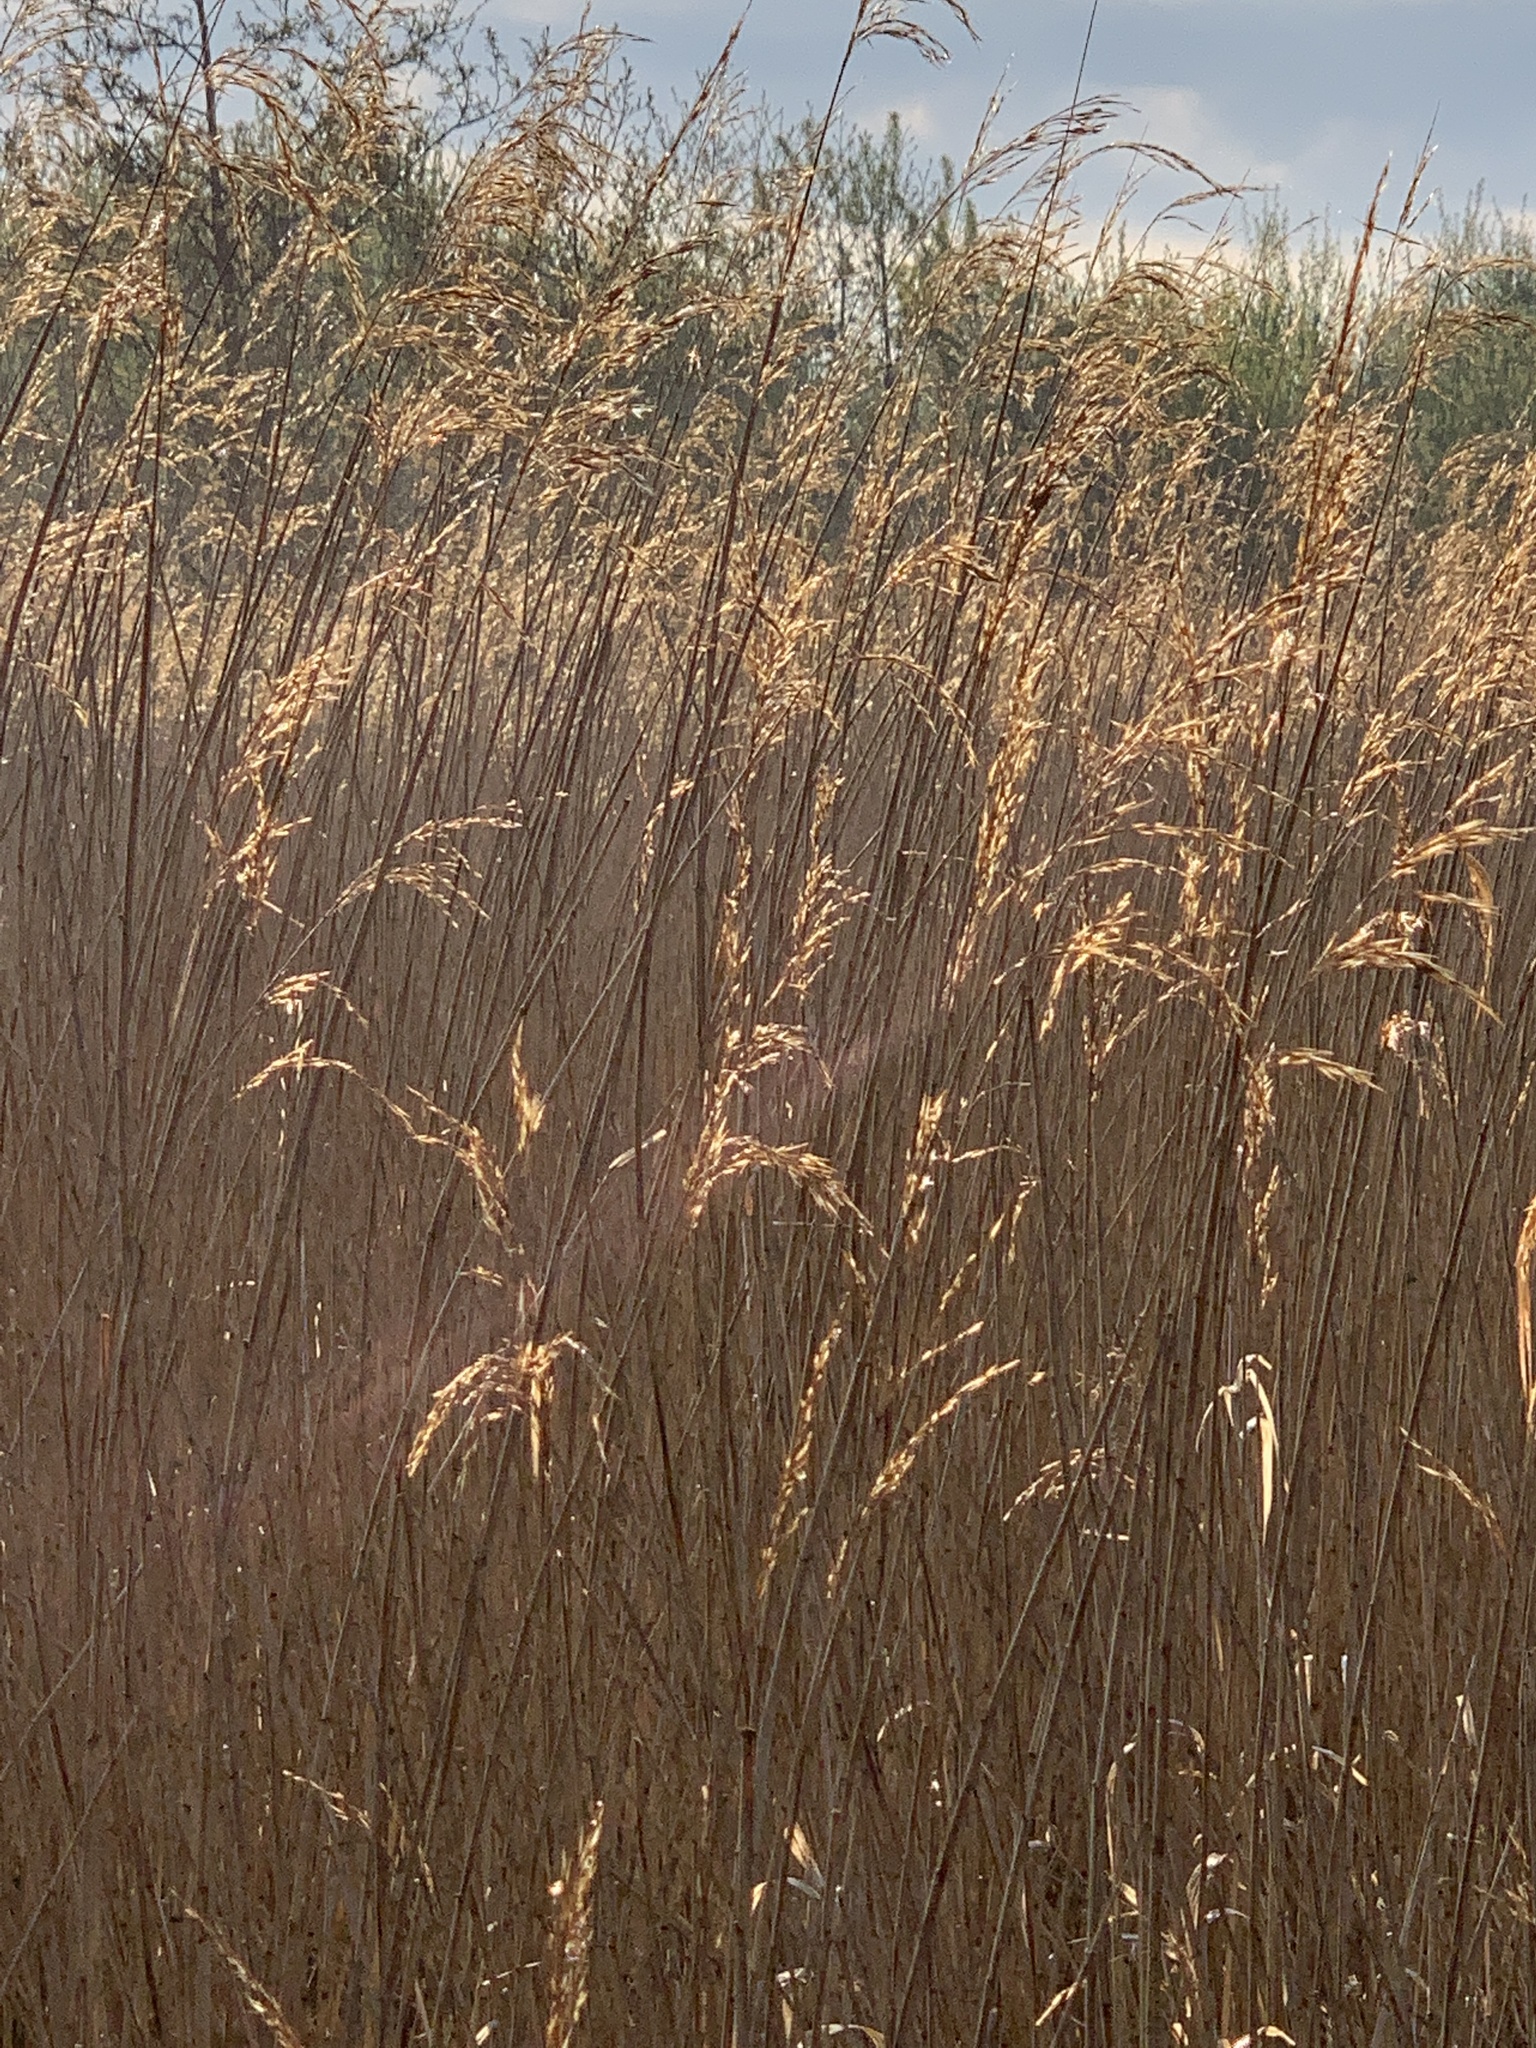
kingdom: Plantae
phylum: Tracheophyta
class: Liliopsida
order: Poales
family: Poaceae
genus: Phragmites
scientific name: Phragmites australis
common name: Common reed
